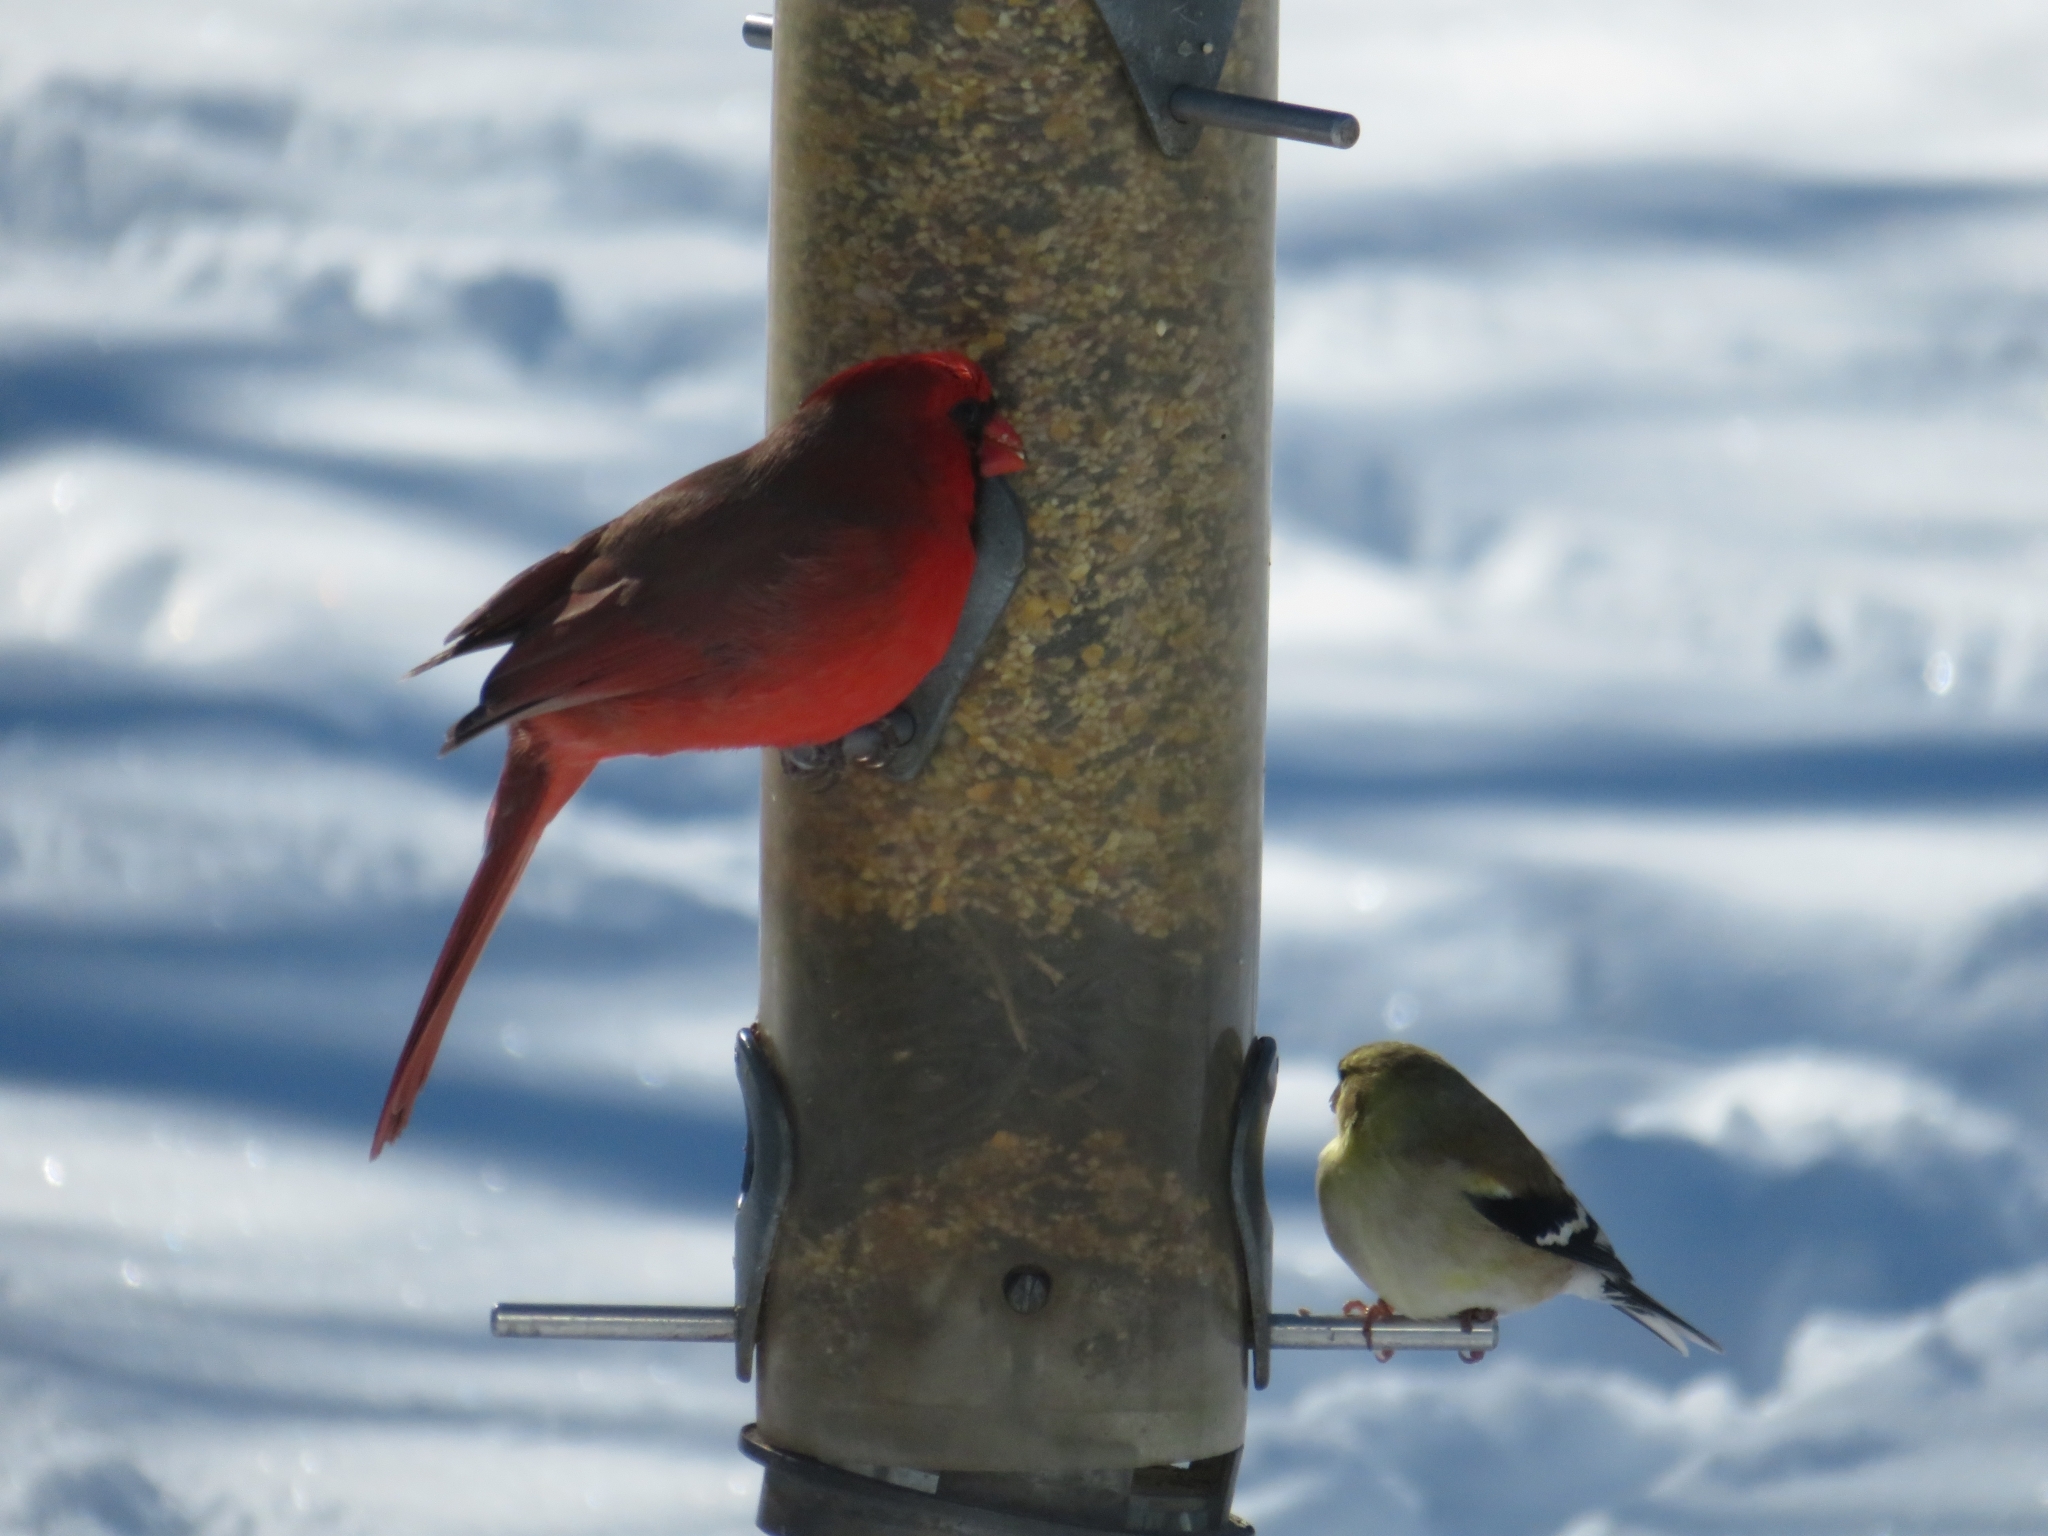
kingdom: Animalia
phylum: Chordata
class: Aves
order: Passeriformes
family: Fringillidae
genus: Spinus
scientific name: Spinus tristis
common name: American goldfinch
